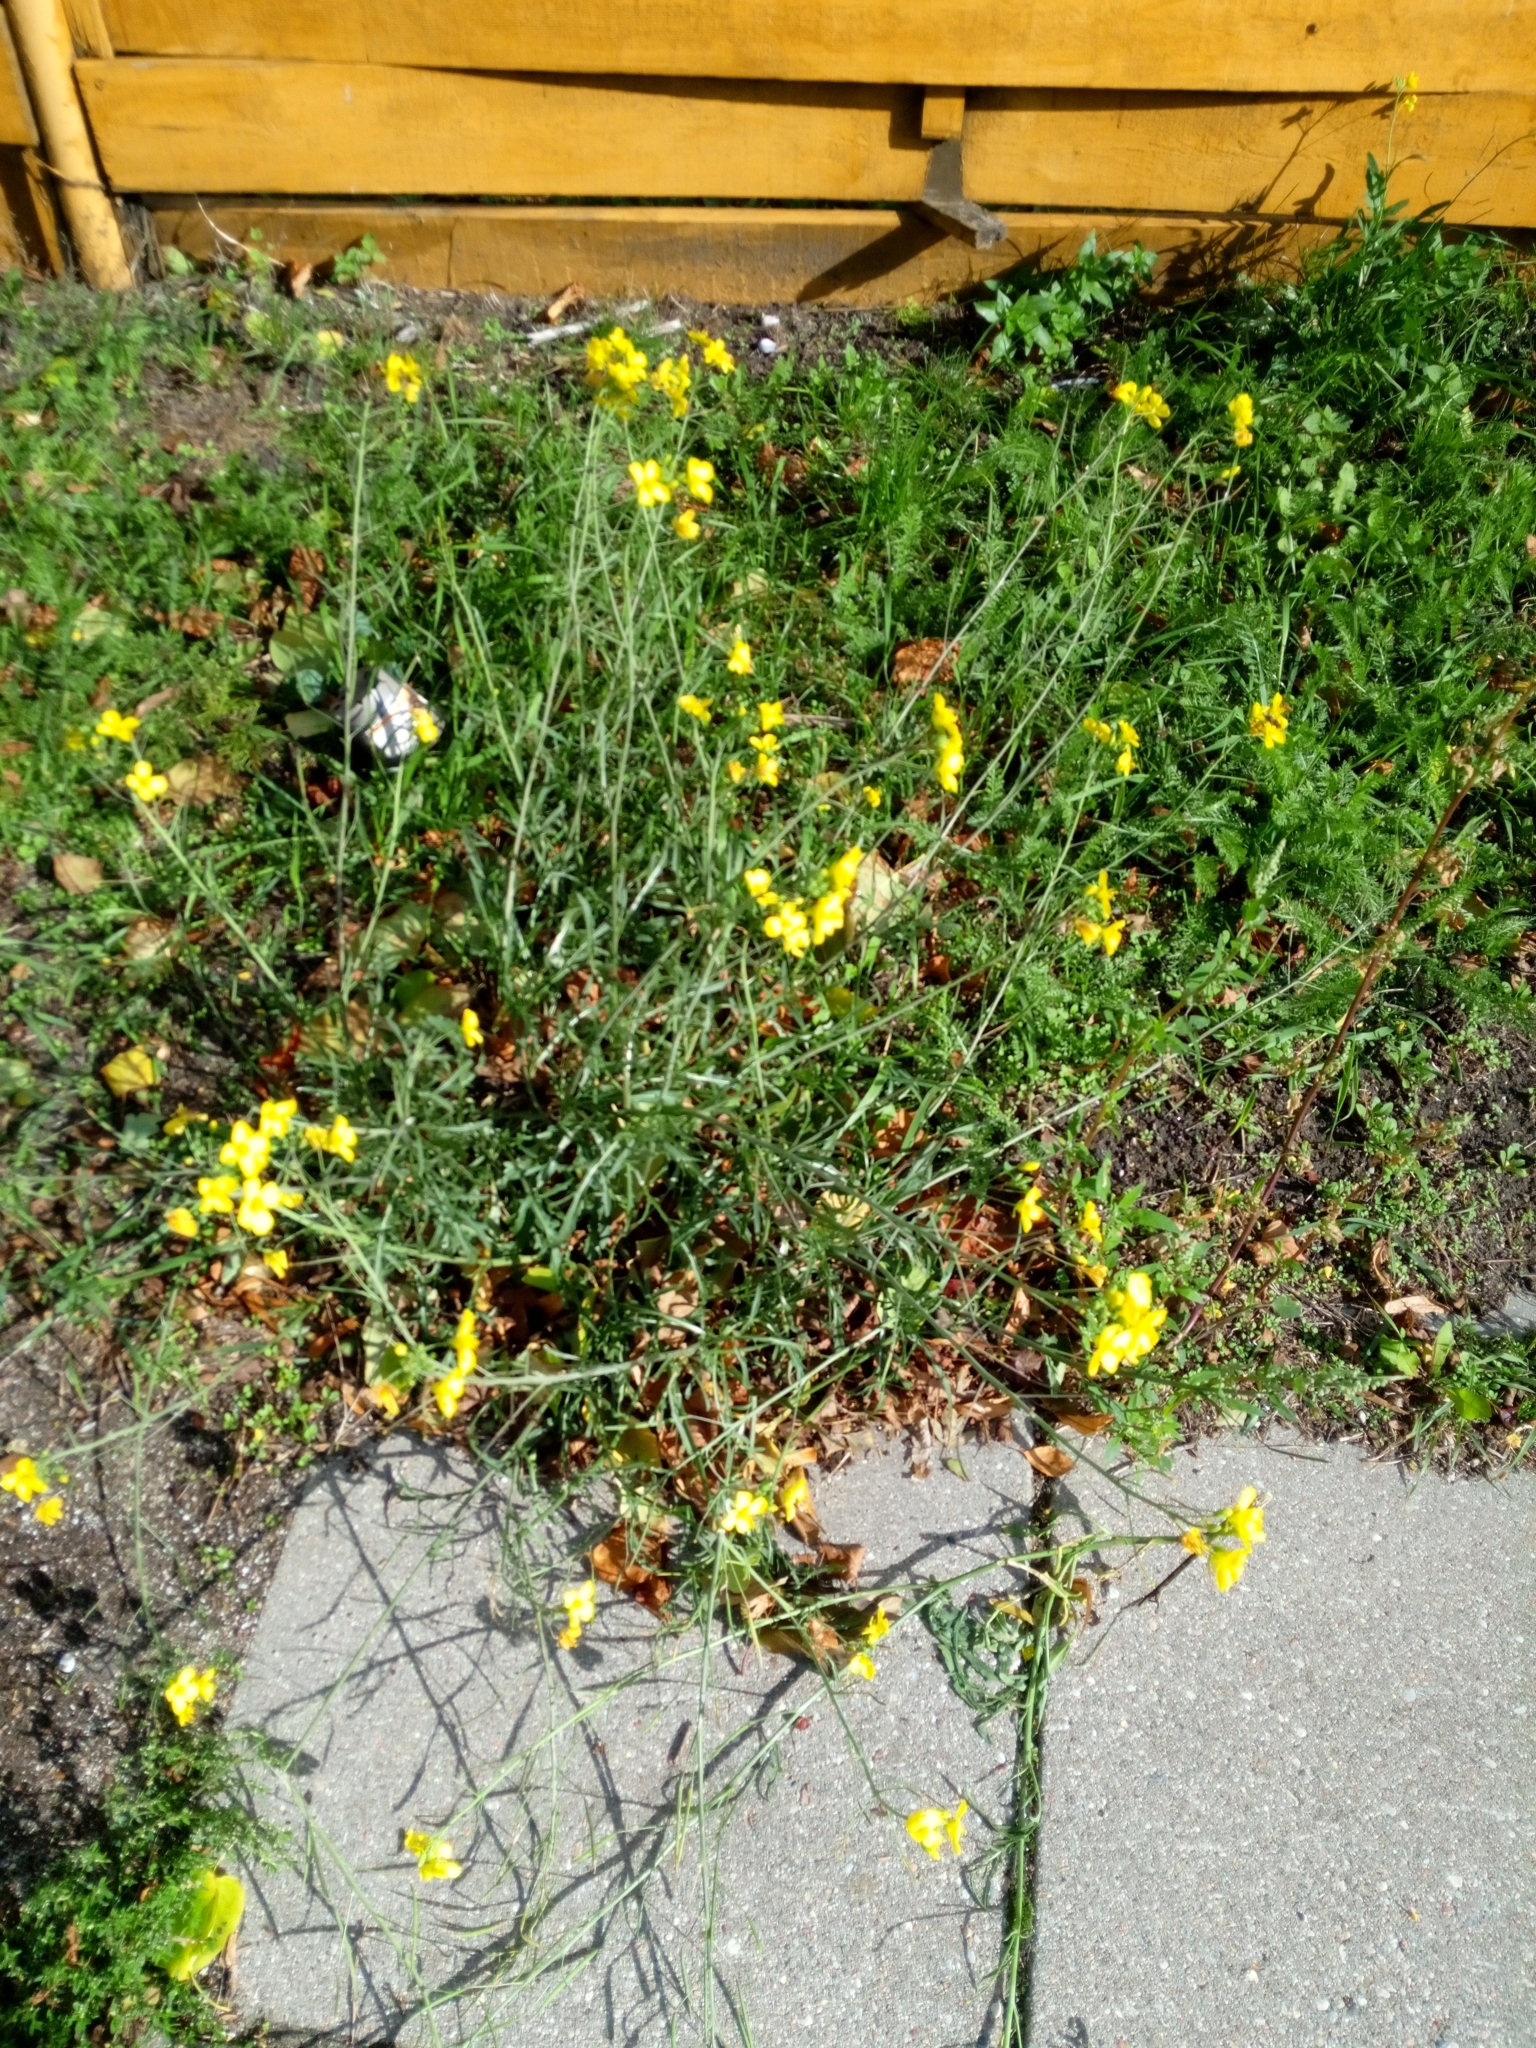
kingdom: Plantae
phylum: Tracheophyta
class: Magnoliopsida
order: Brassicales
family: Brassicaceae
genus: Diplotaxis
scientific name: Diplotaxis tenuifolia
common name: Perennial wall-rocket
